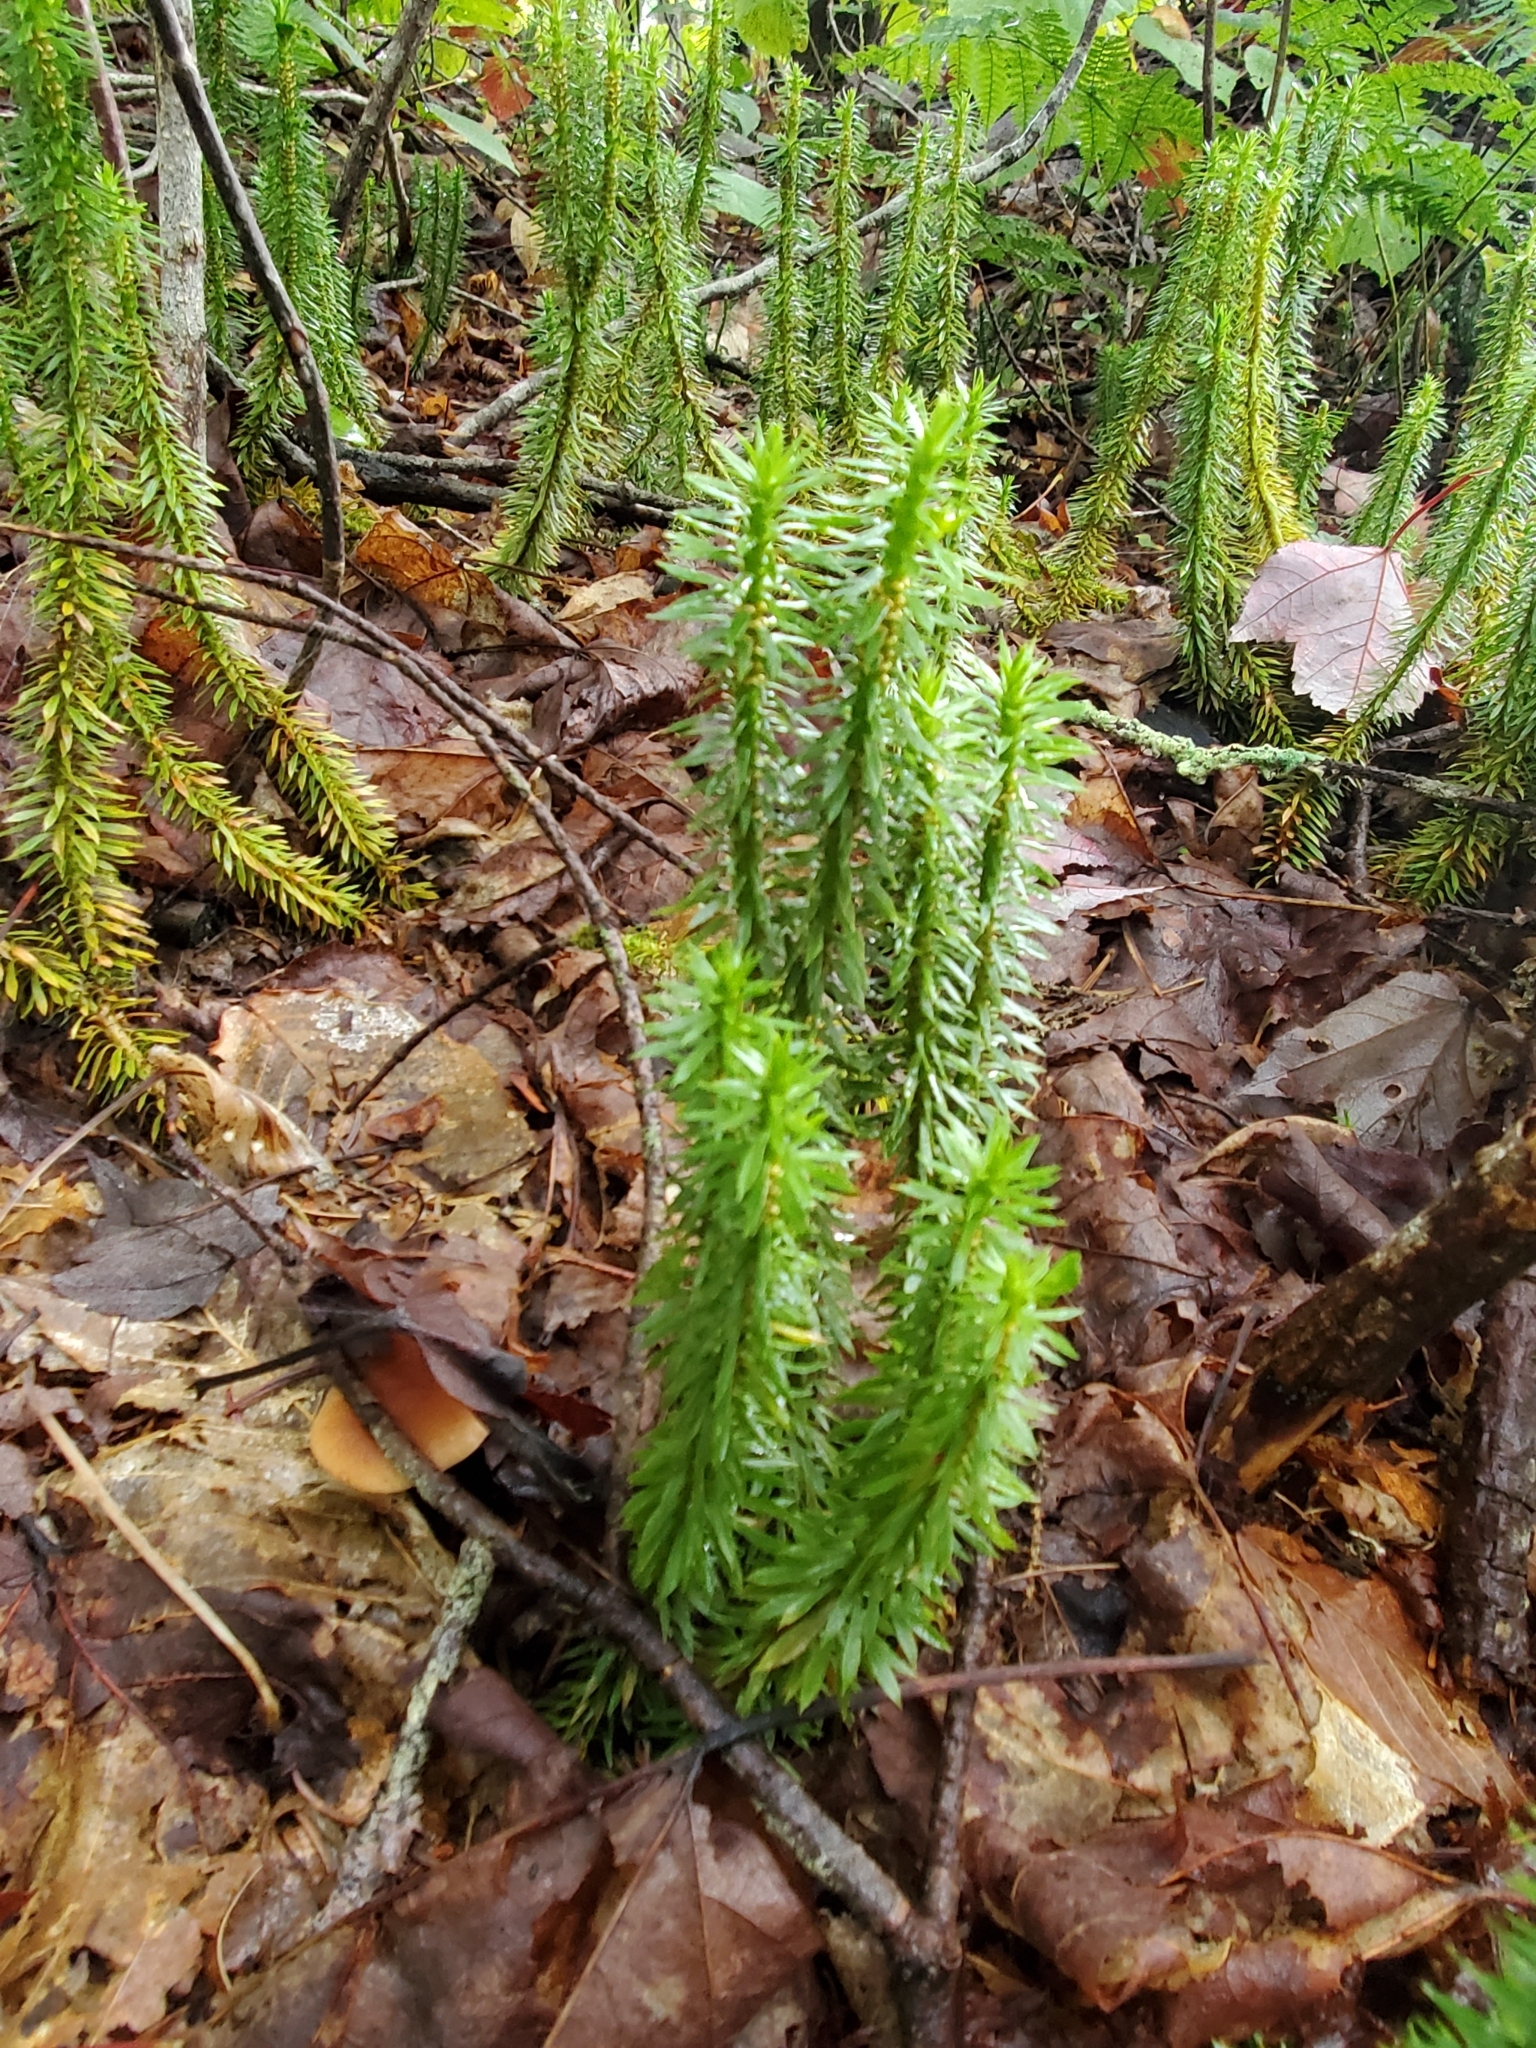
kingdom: Plantae
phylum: Tracheophyta
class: Lycopodiopsida
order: Lycopodiales
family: Lycopodiaceae
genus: Huperzia
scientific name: Huperzia lucidula
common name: Shining clubmoss
